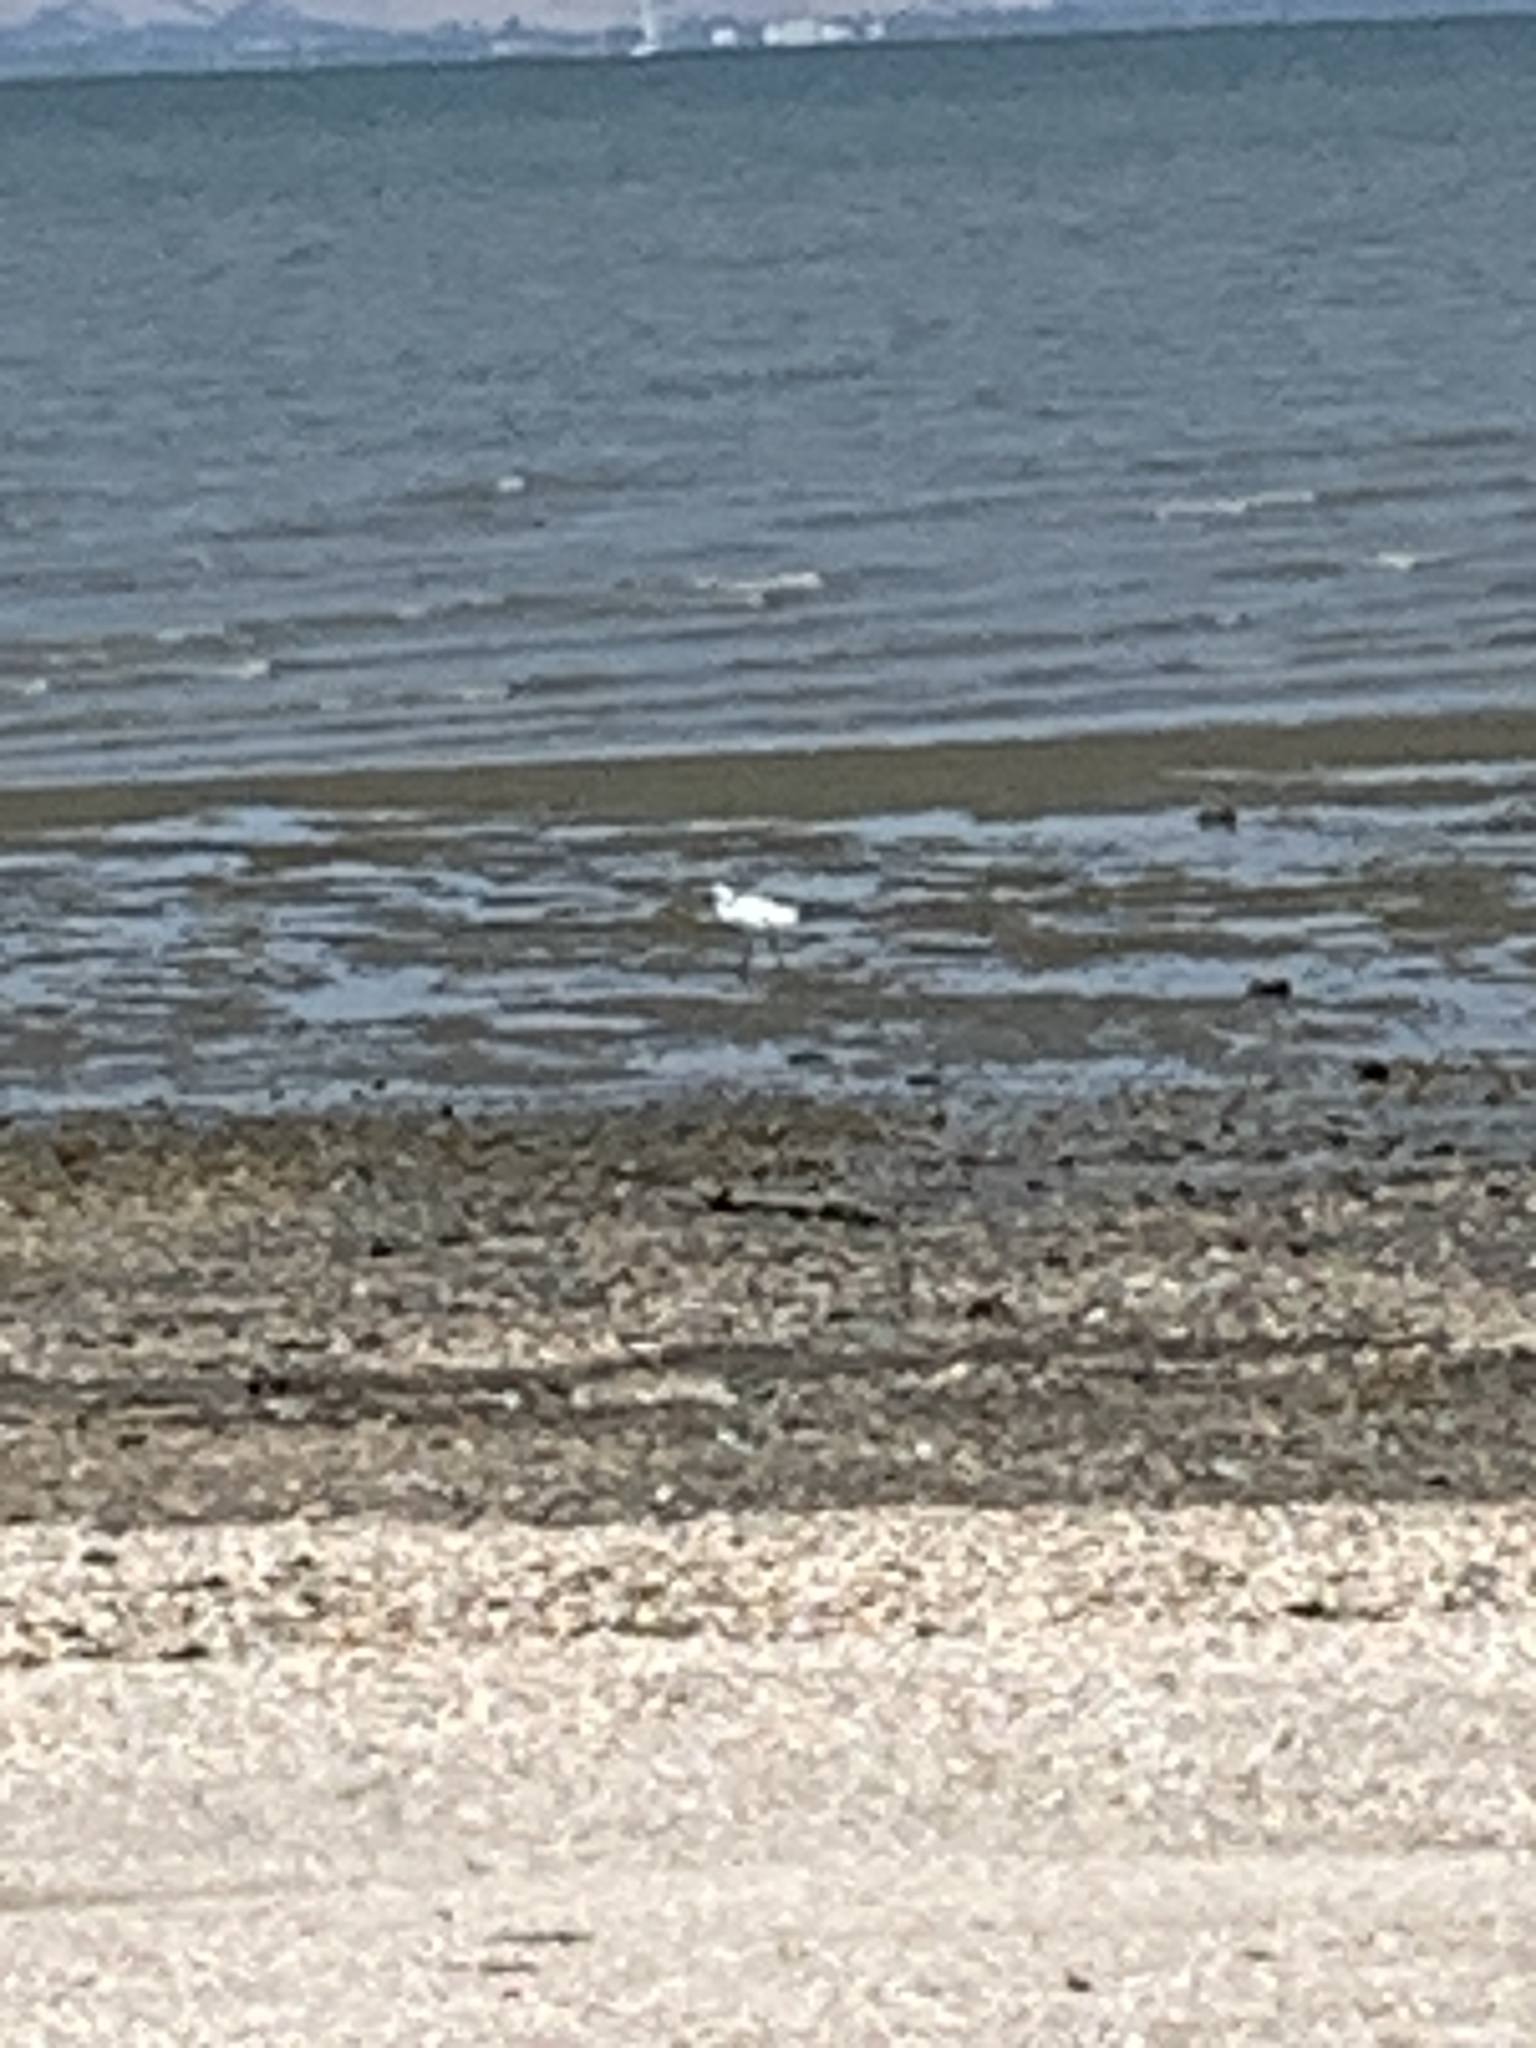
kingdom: Animalia
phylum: Chordata
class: Aves
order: Pelecaniformes
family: Ardeidae
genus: Egretta
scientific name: Egretta thula
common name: Snowy egret
